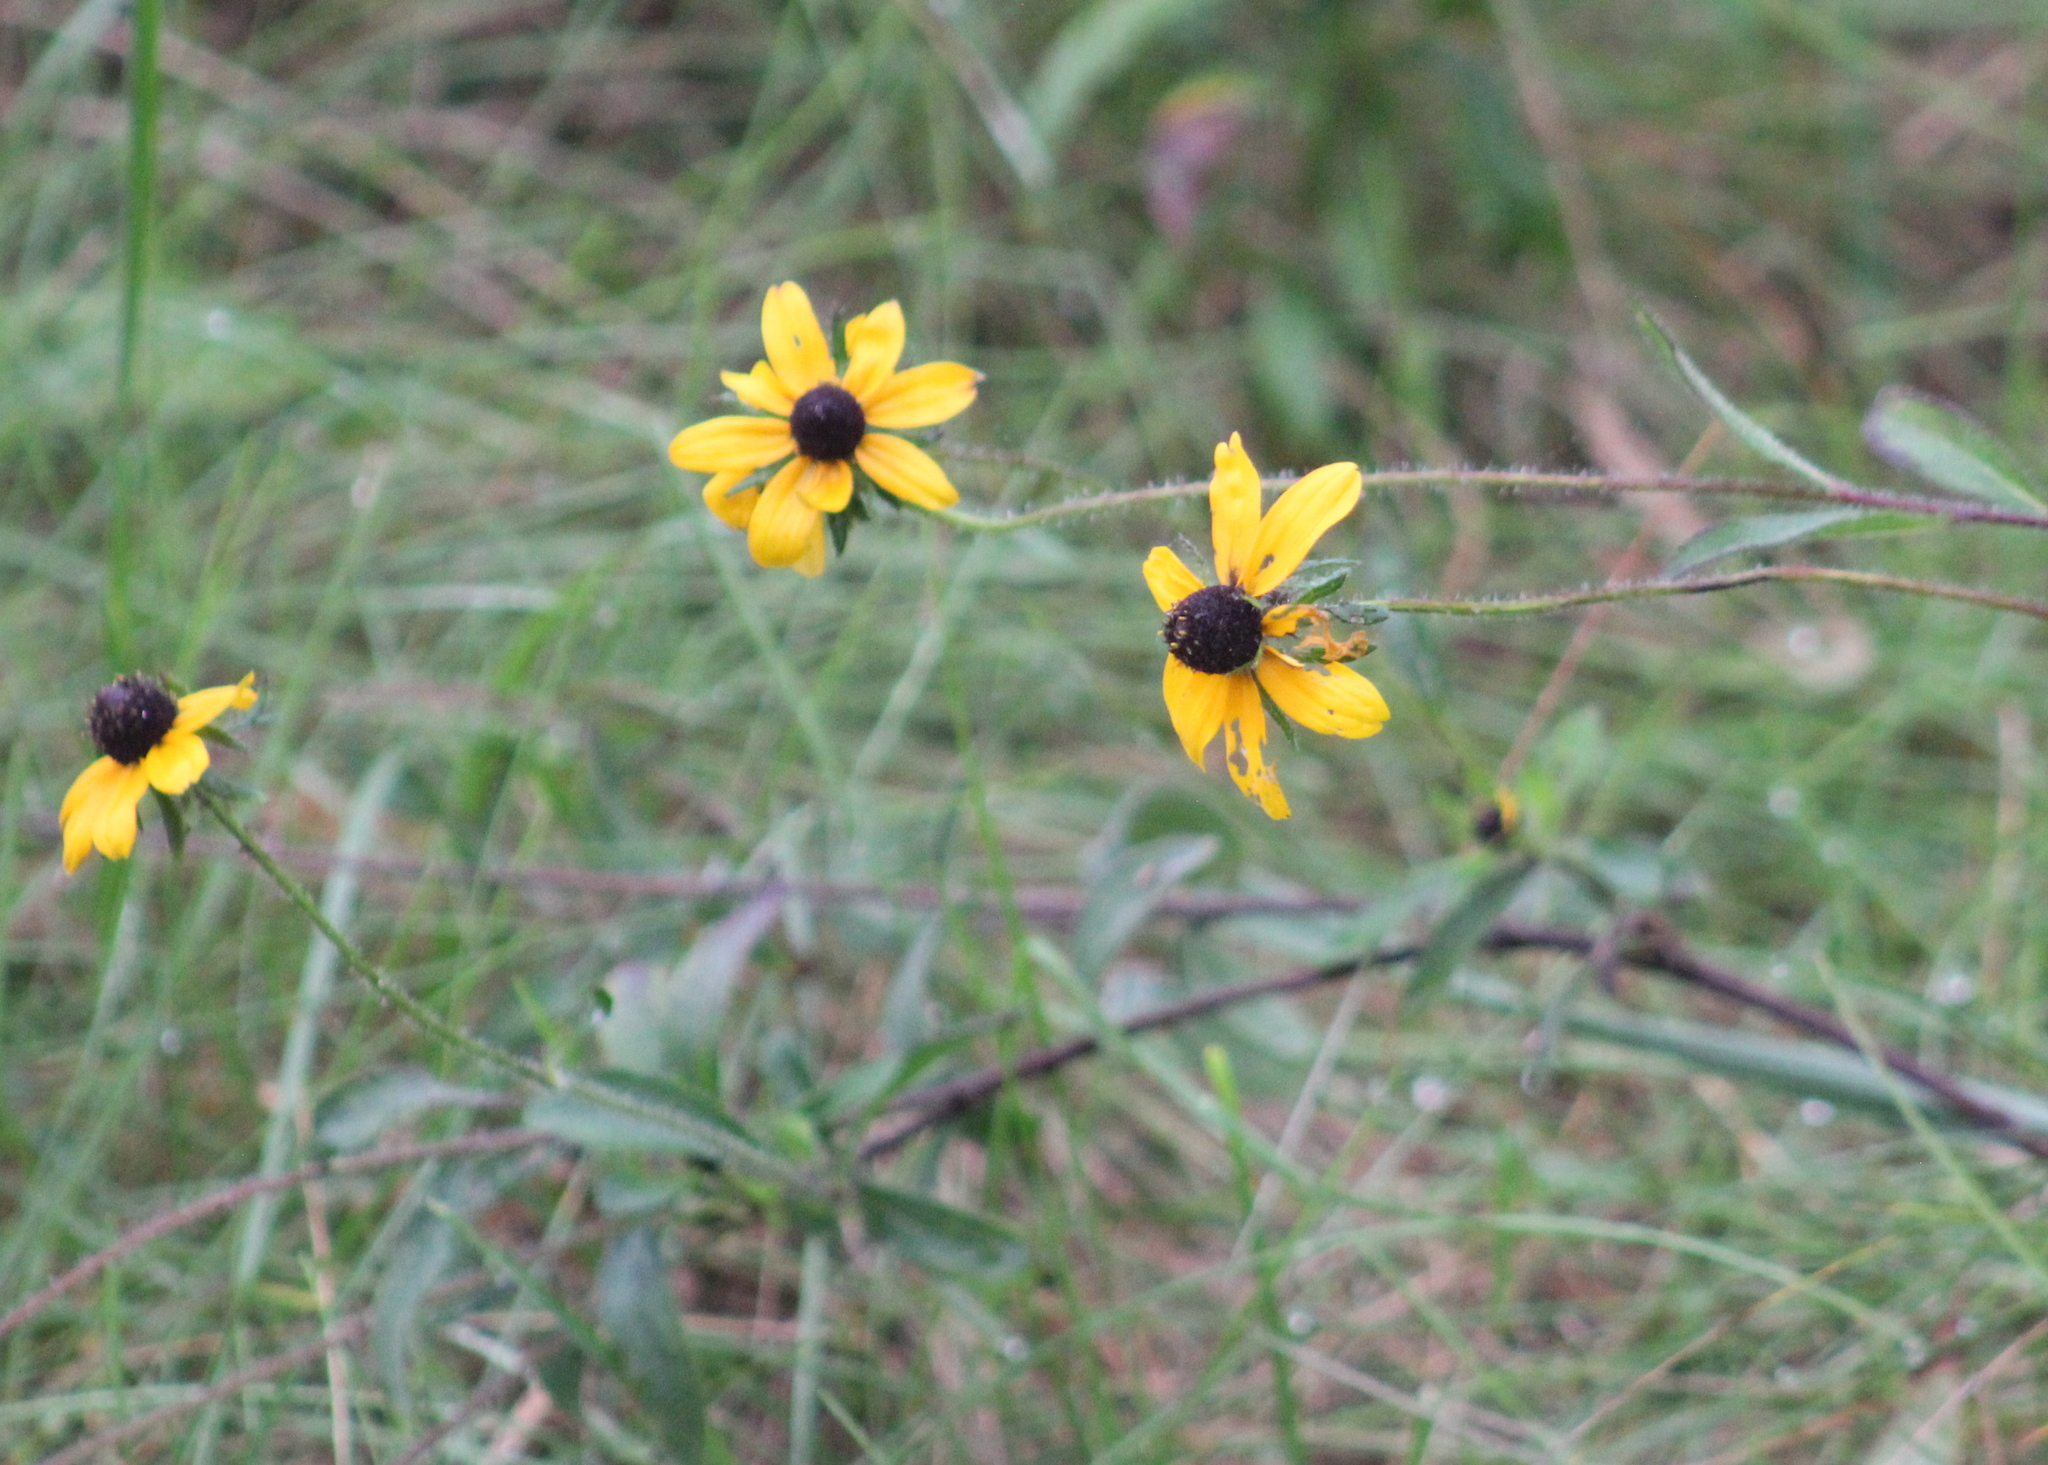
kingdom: Plantae
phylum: Tracheophyta
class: Magnoliopsida
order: Asterales
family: Asteraceae
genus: Rudbeckia
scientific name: Rudbeckia hirta
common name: Black-eyed-susan
